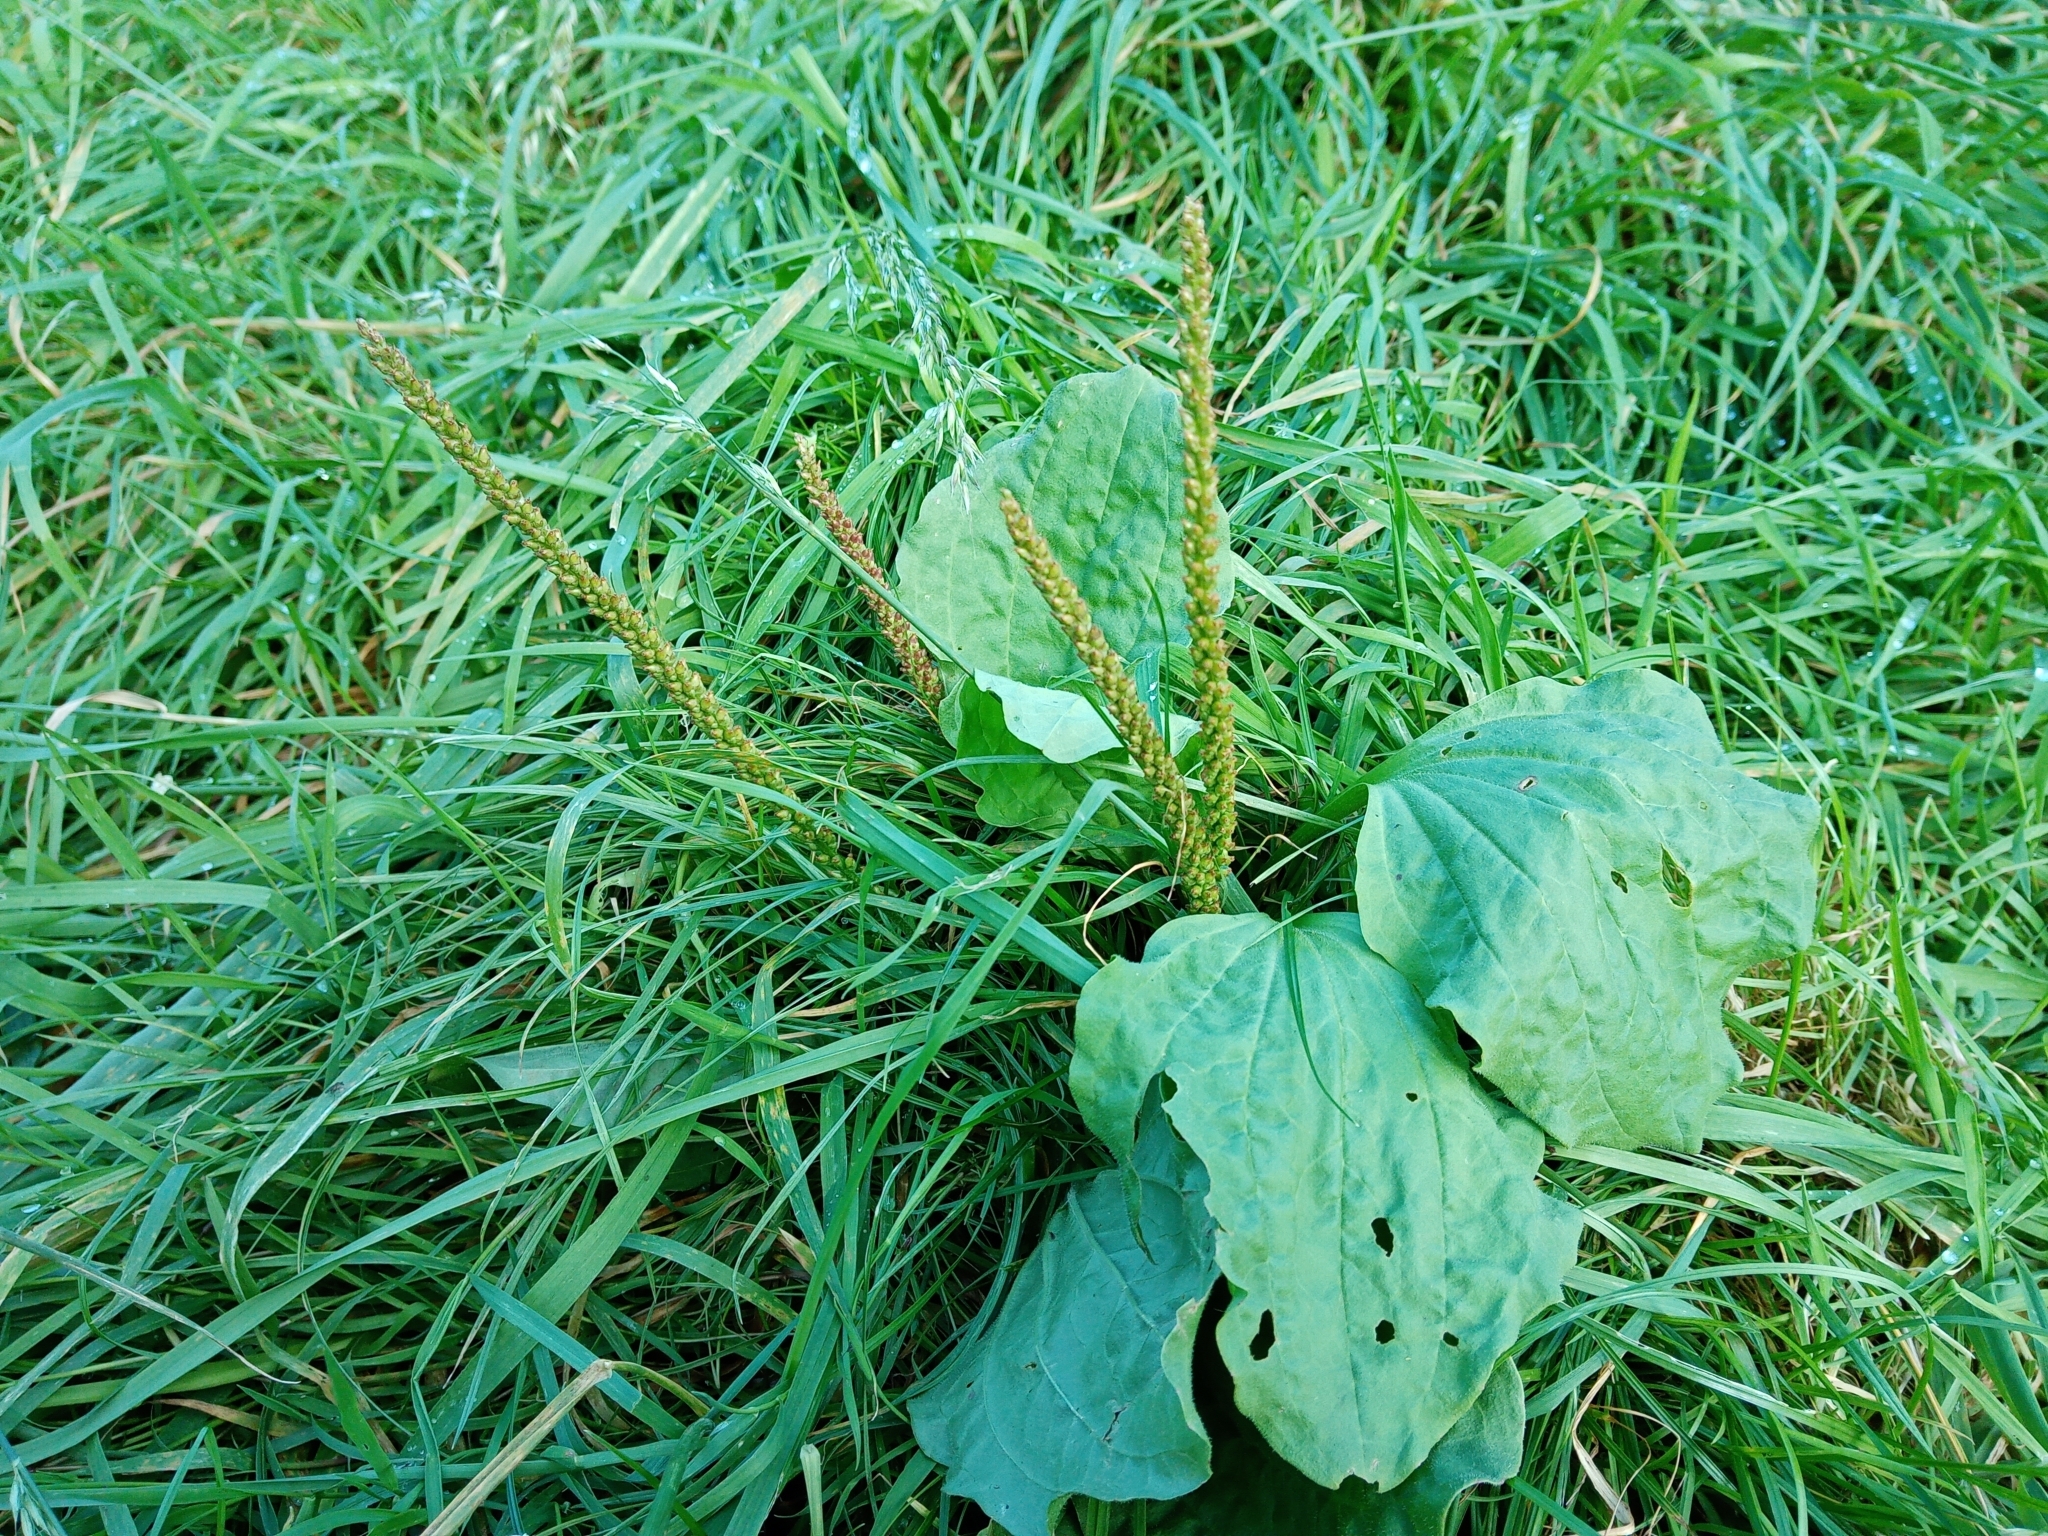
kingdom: Plantae
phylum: Tracheophyta
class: Magnoliopsida
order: Lamiales
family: Plantaginaceae
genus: Plantago
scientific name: Plantago major
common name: Common plantain
